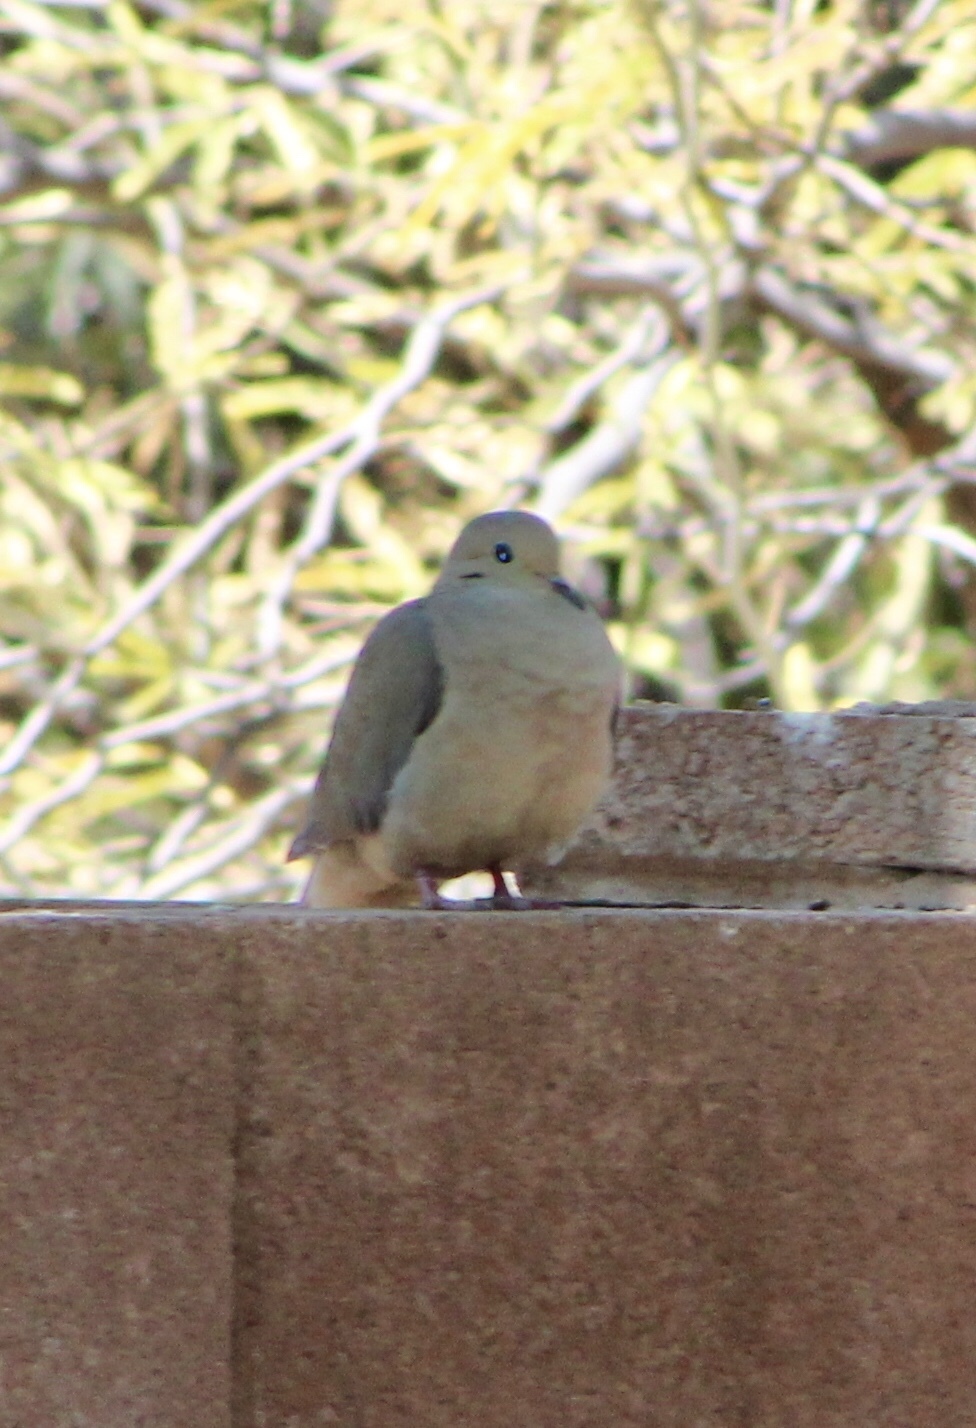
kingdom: Animalia
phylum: Chordata
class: Aves
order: Columbiformes
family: Columbidae
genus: Zenaida
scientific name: Zenaida macroura
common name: Mourning dove
